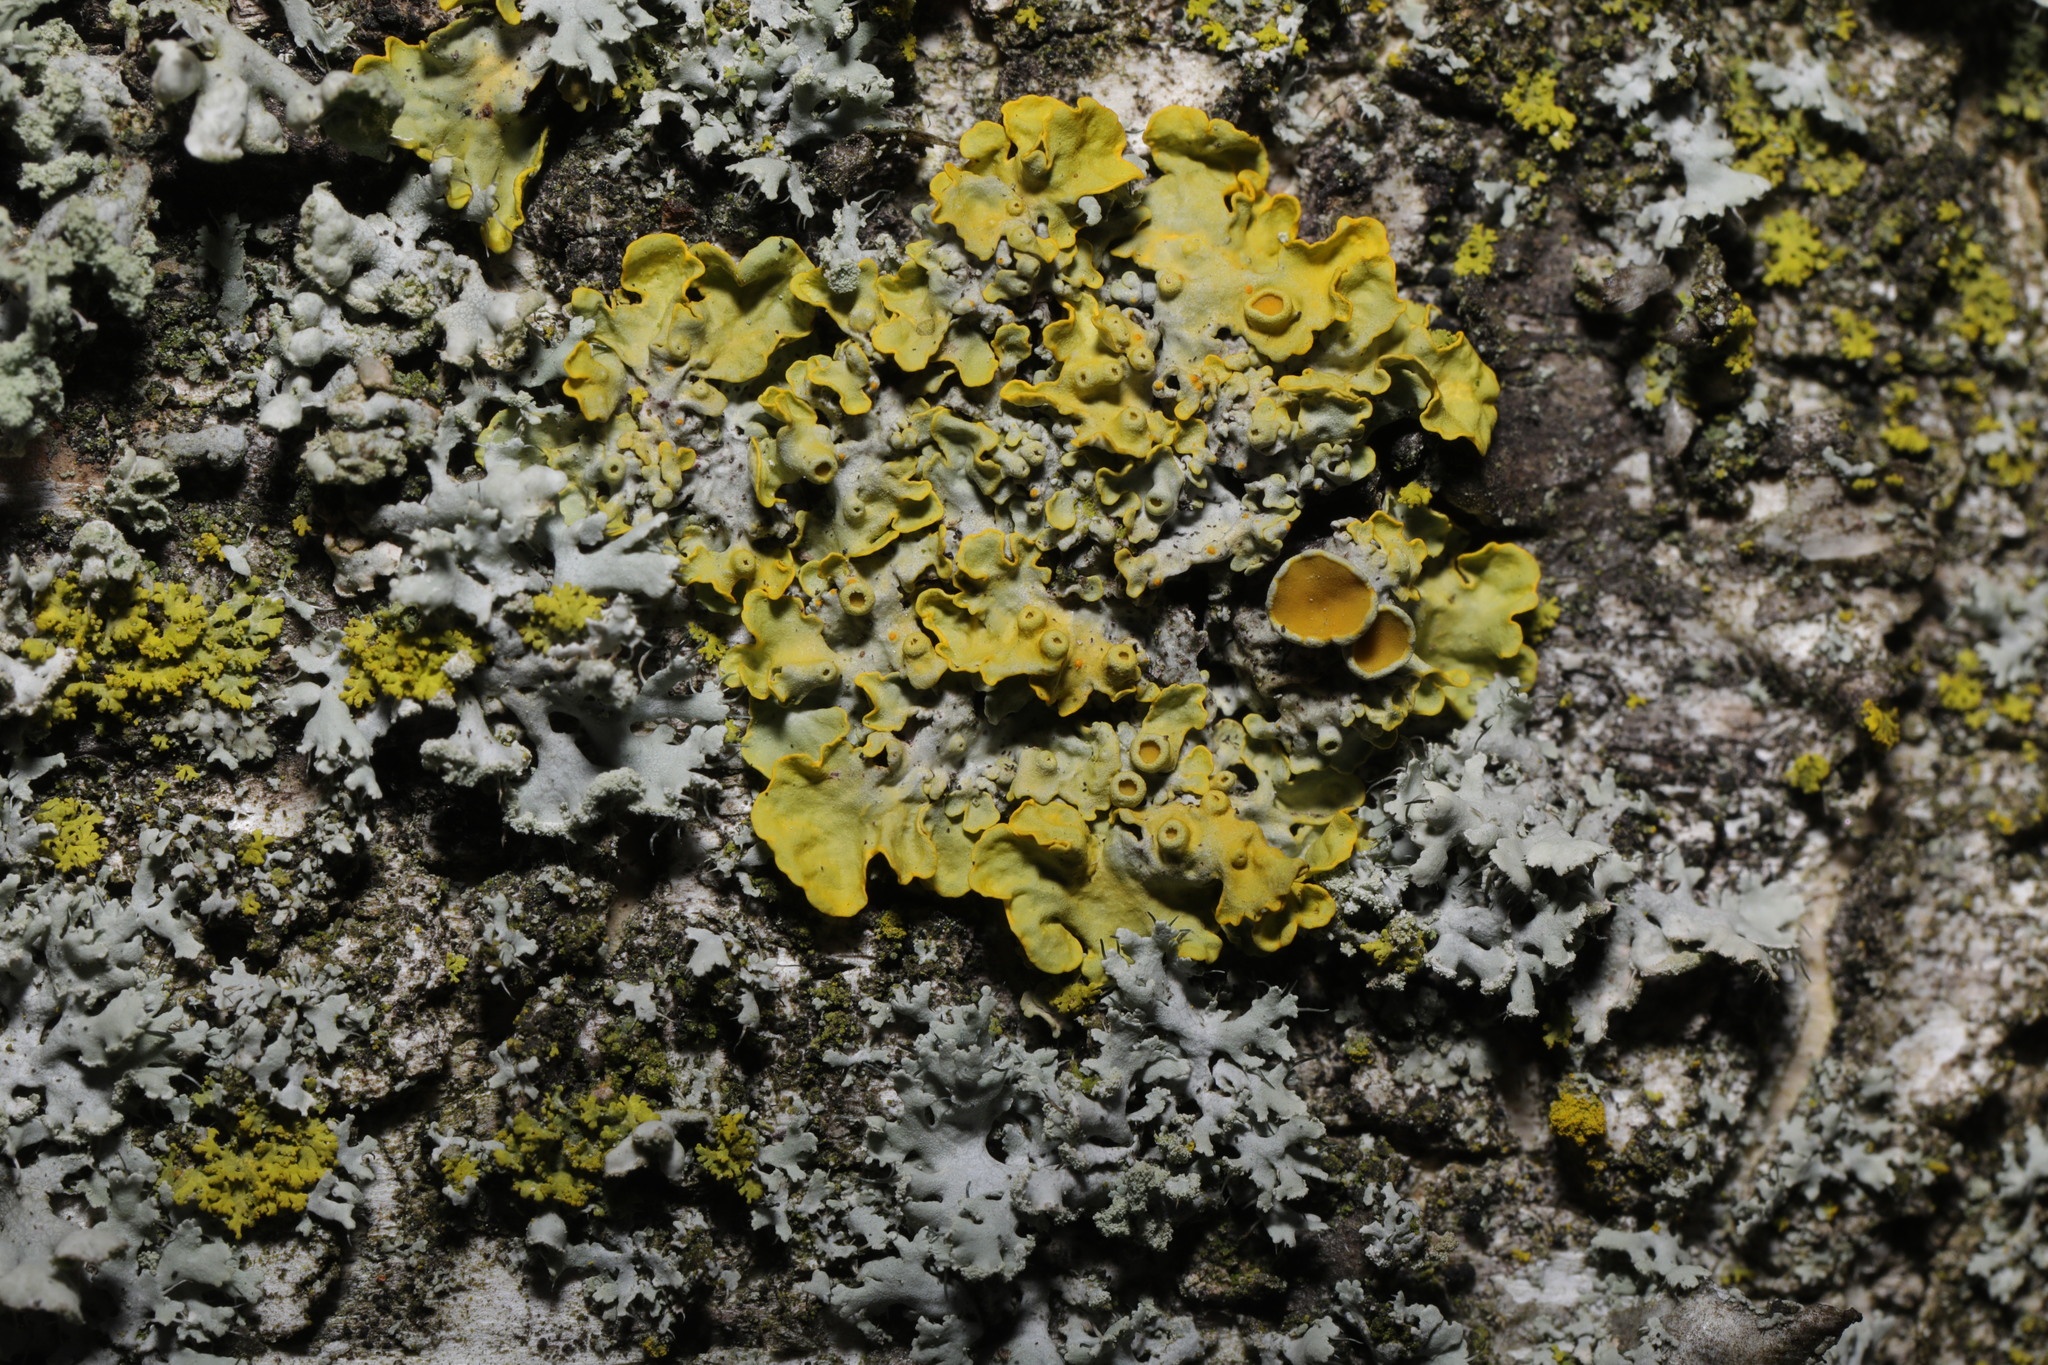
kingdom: Fungi
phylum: Ascomycota
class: Lecanoromycetes
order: Teloschistales
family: Teloschistaceae
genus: Xanthoria
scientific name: Xanthoria parietina
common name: Common orange lichen
